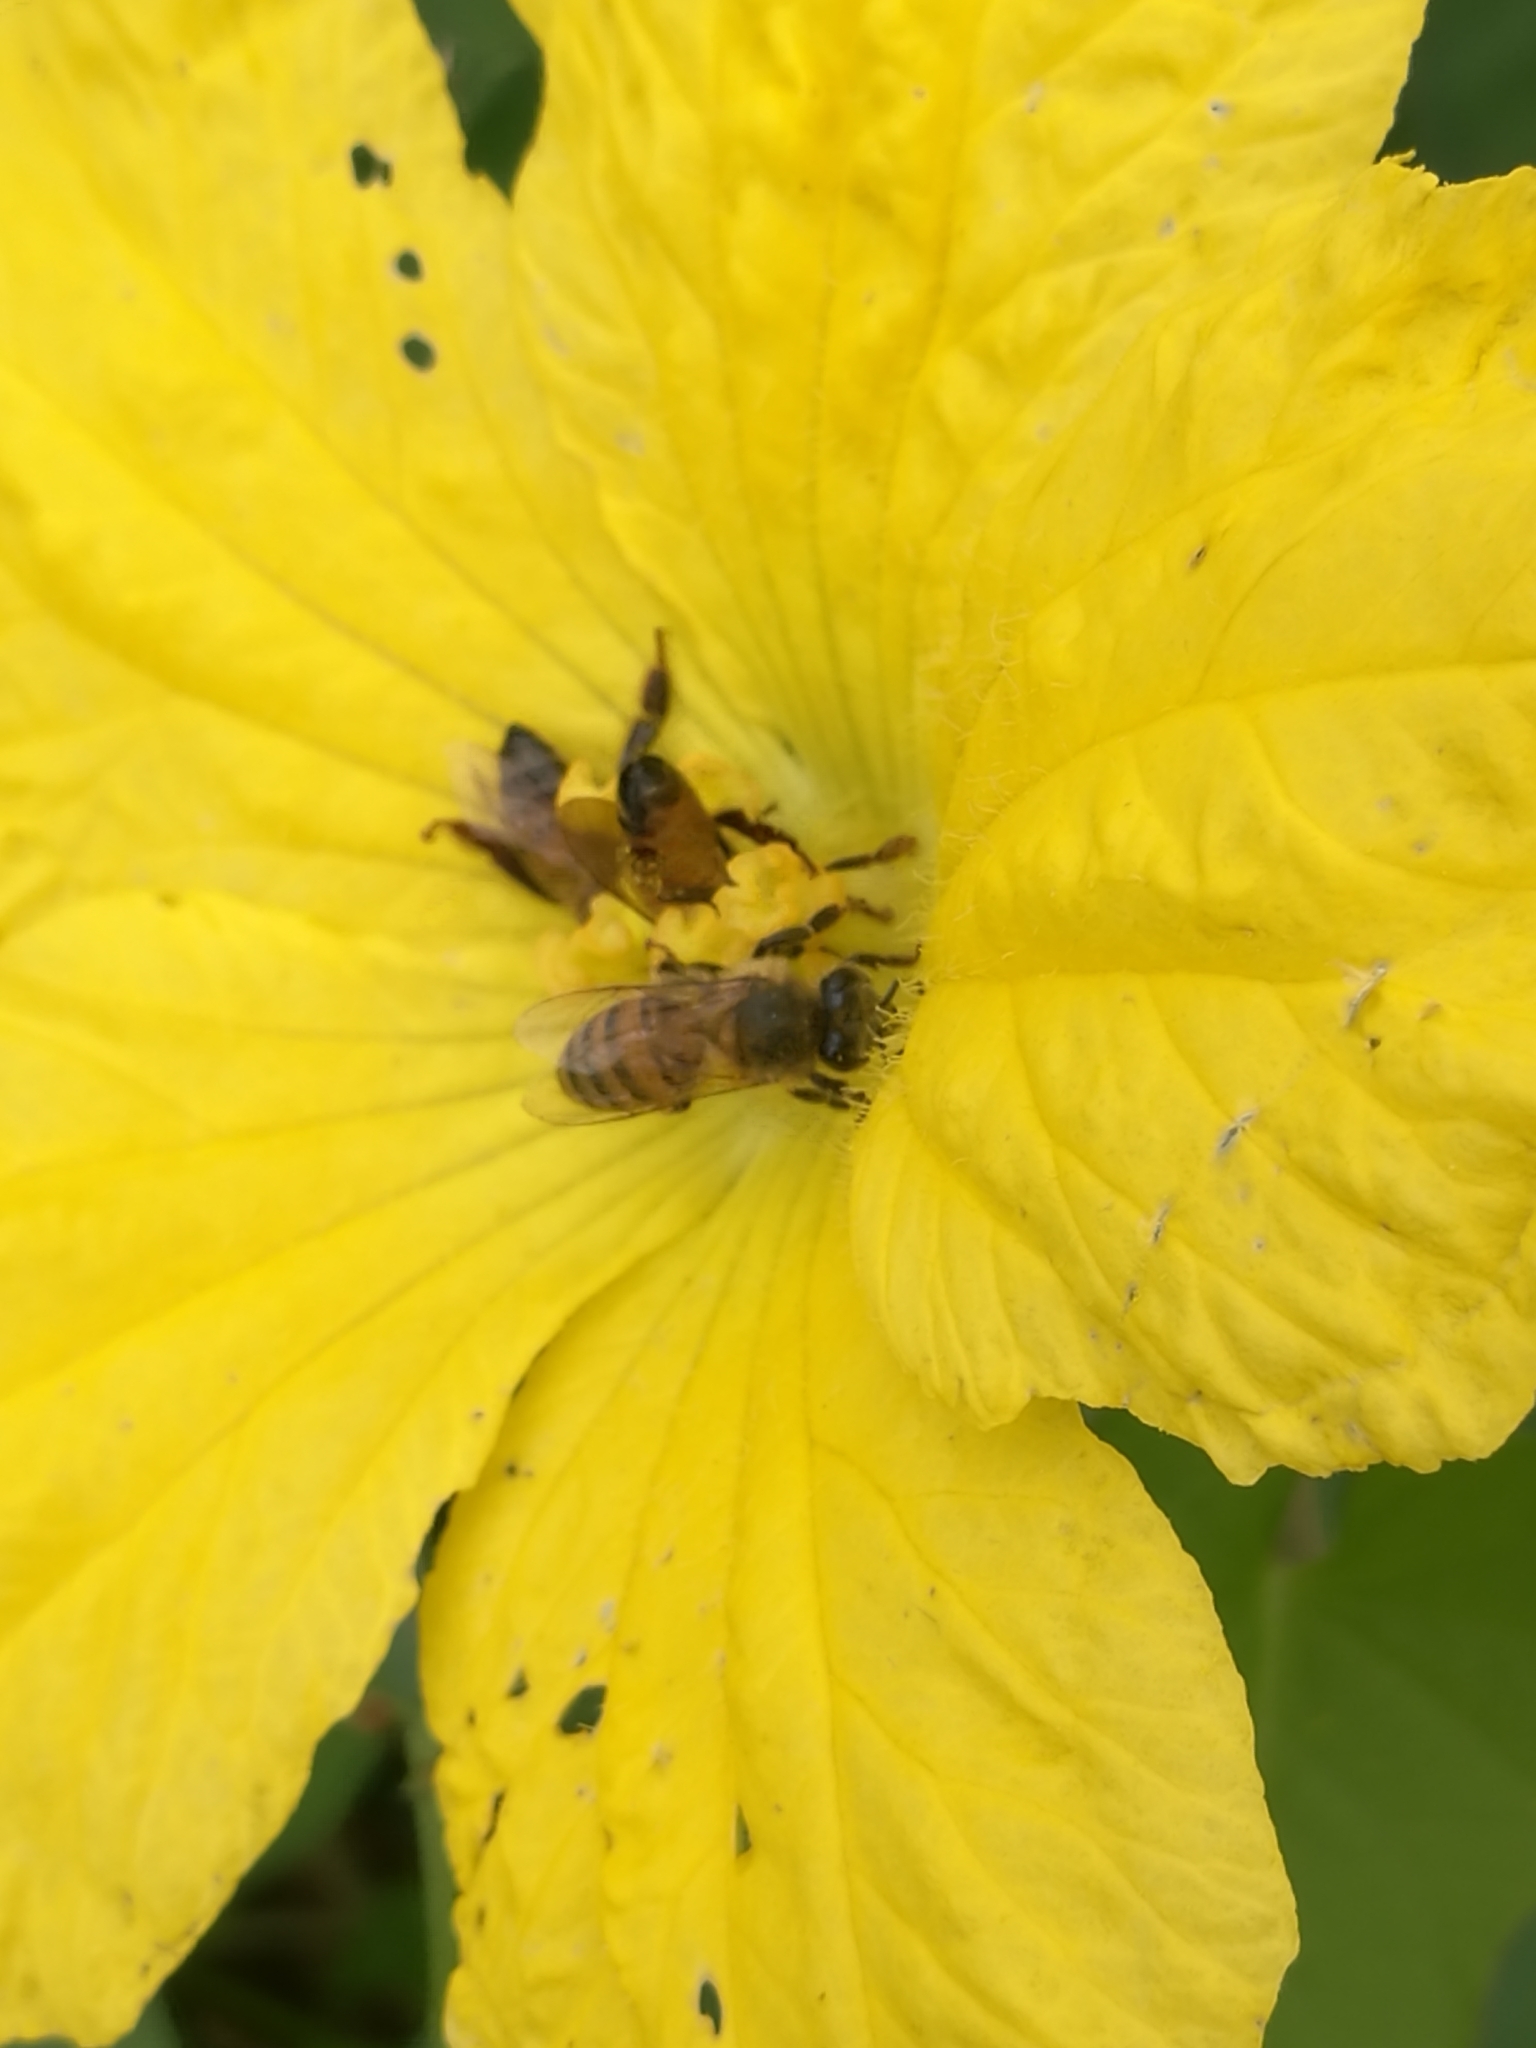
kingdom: Animalia
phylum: Arthropoda
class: Insecta
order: Hymenoptera
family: Apidae
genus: Apis
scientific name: Apis mellifera
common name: Honey bee
